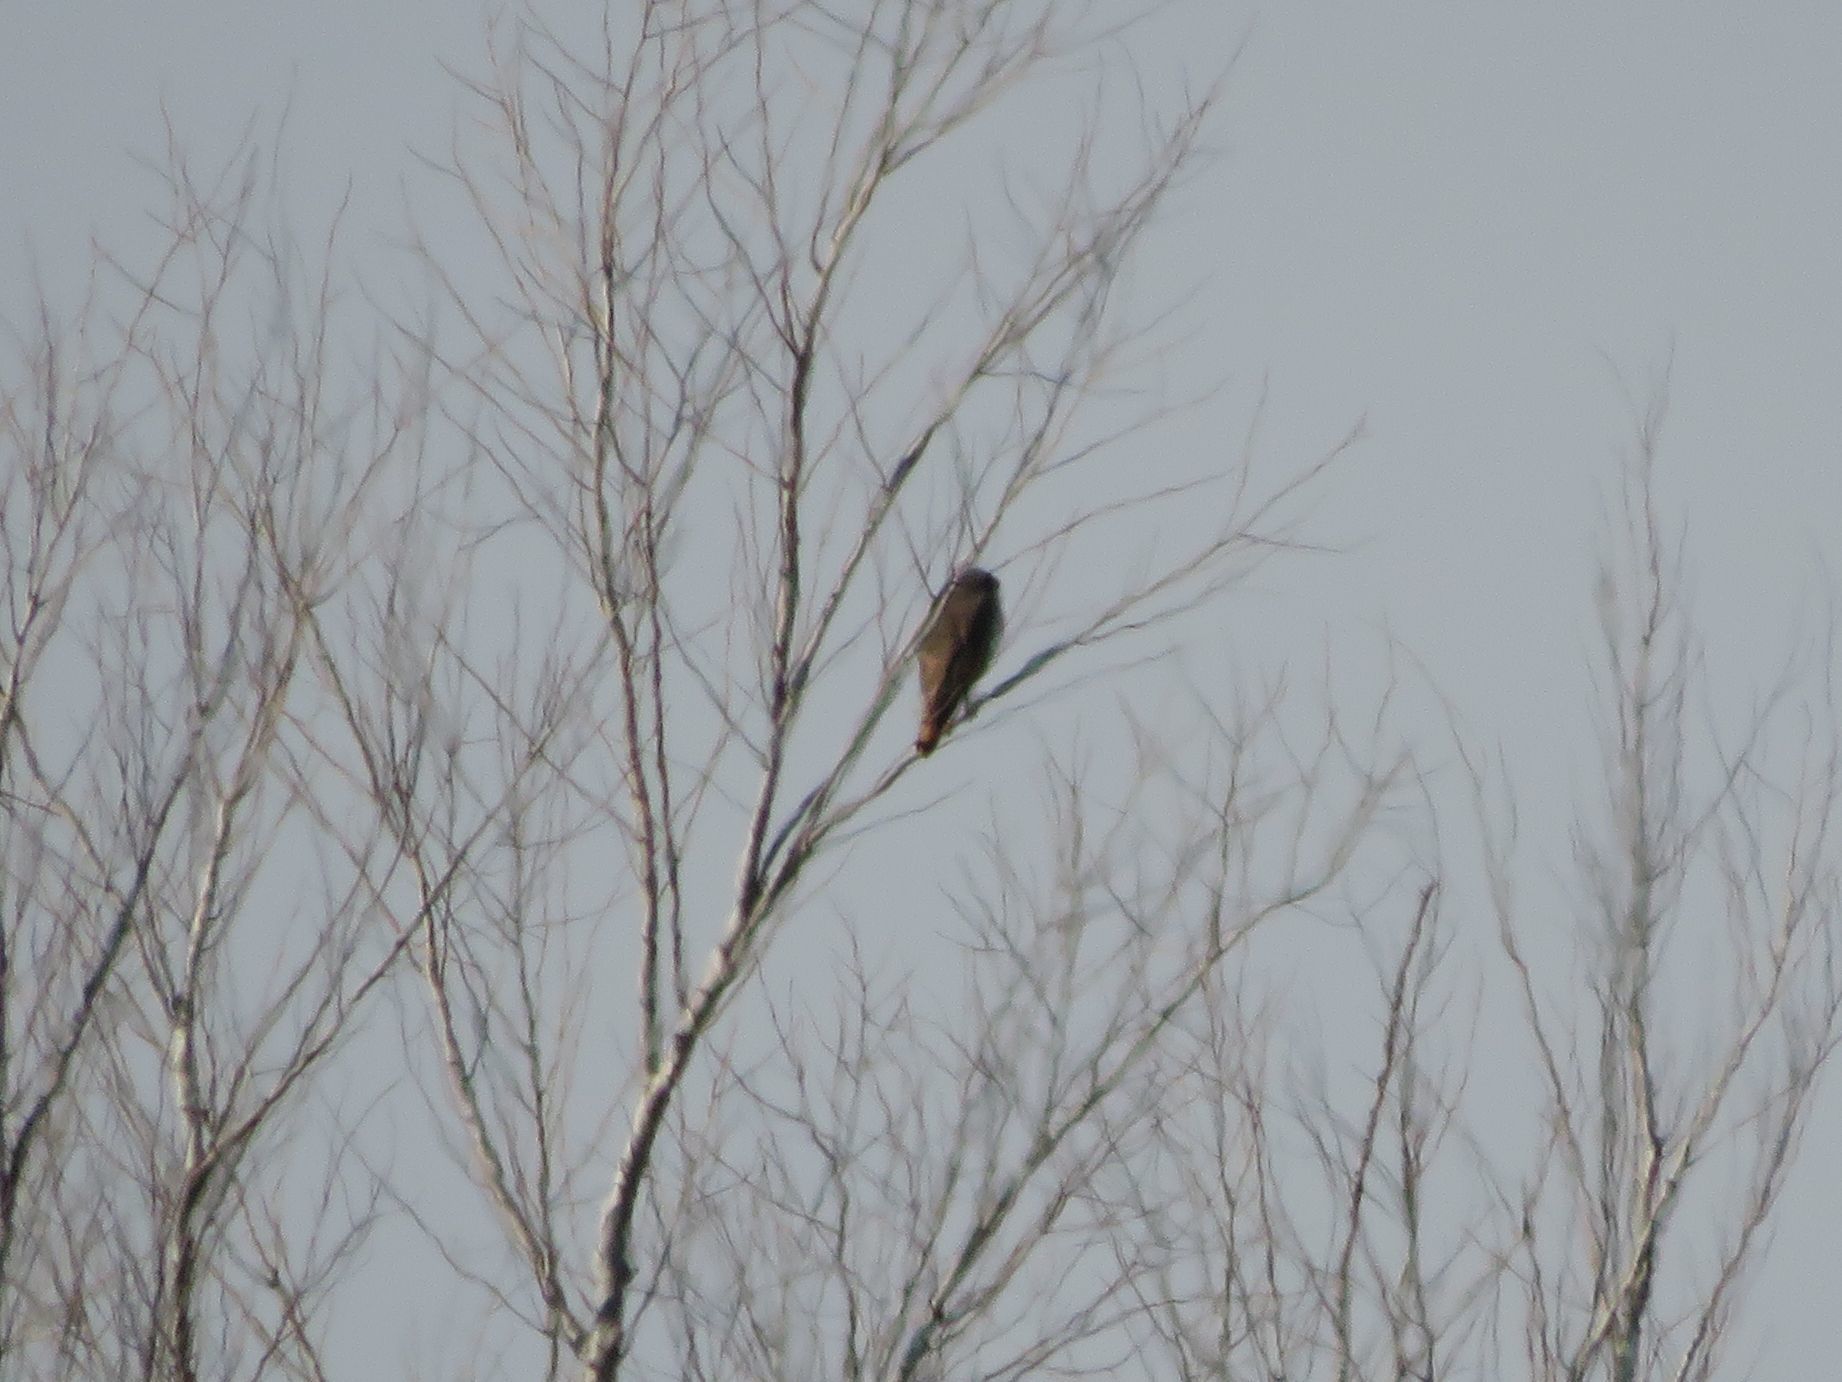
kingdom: Animalia
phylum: Chordata
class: Aves
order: Accipitriformes
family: Accipitridae
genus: Rupornis
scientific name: Rupornis magnirostris
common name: Roadside hawk
